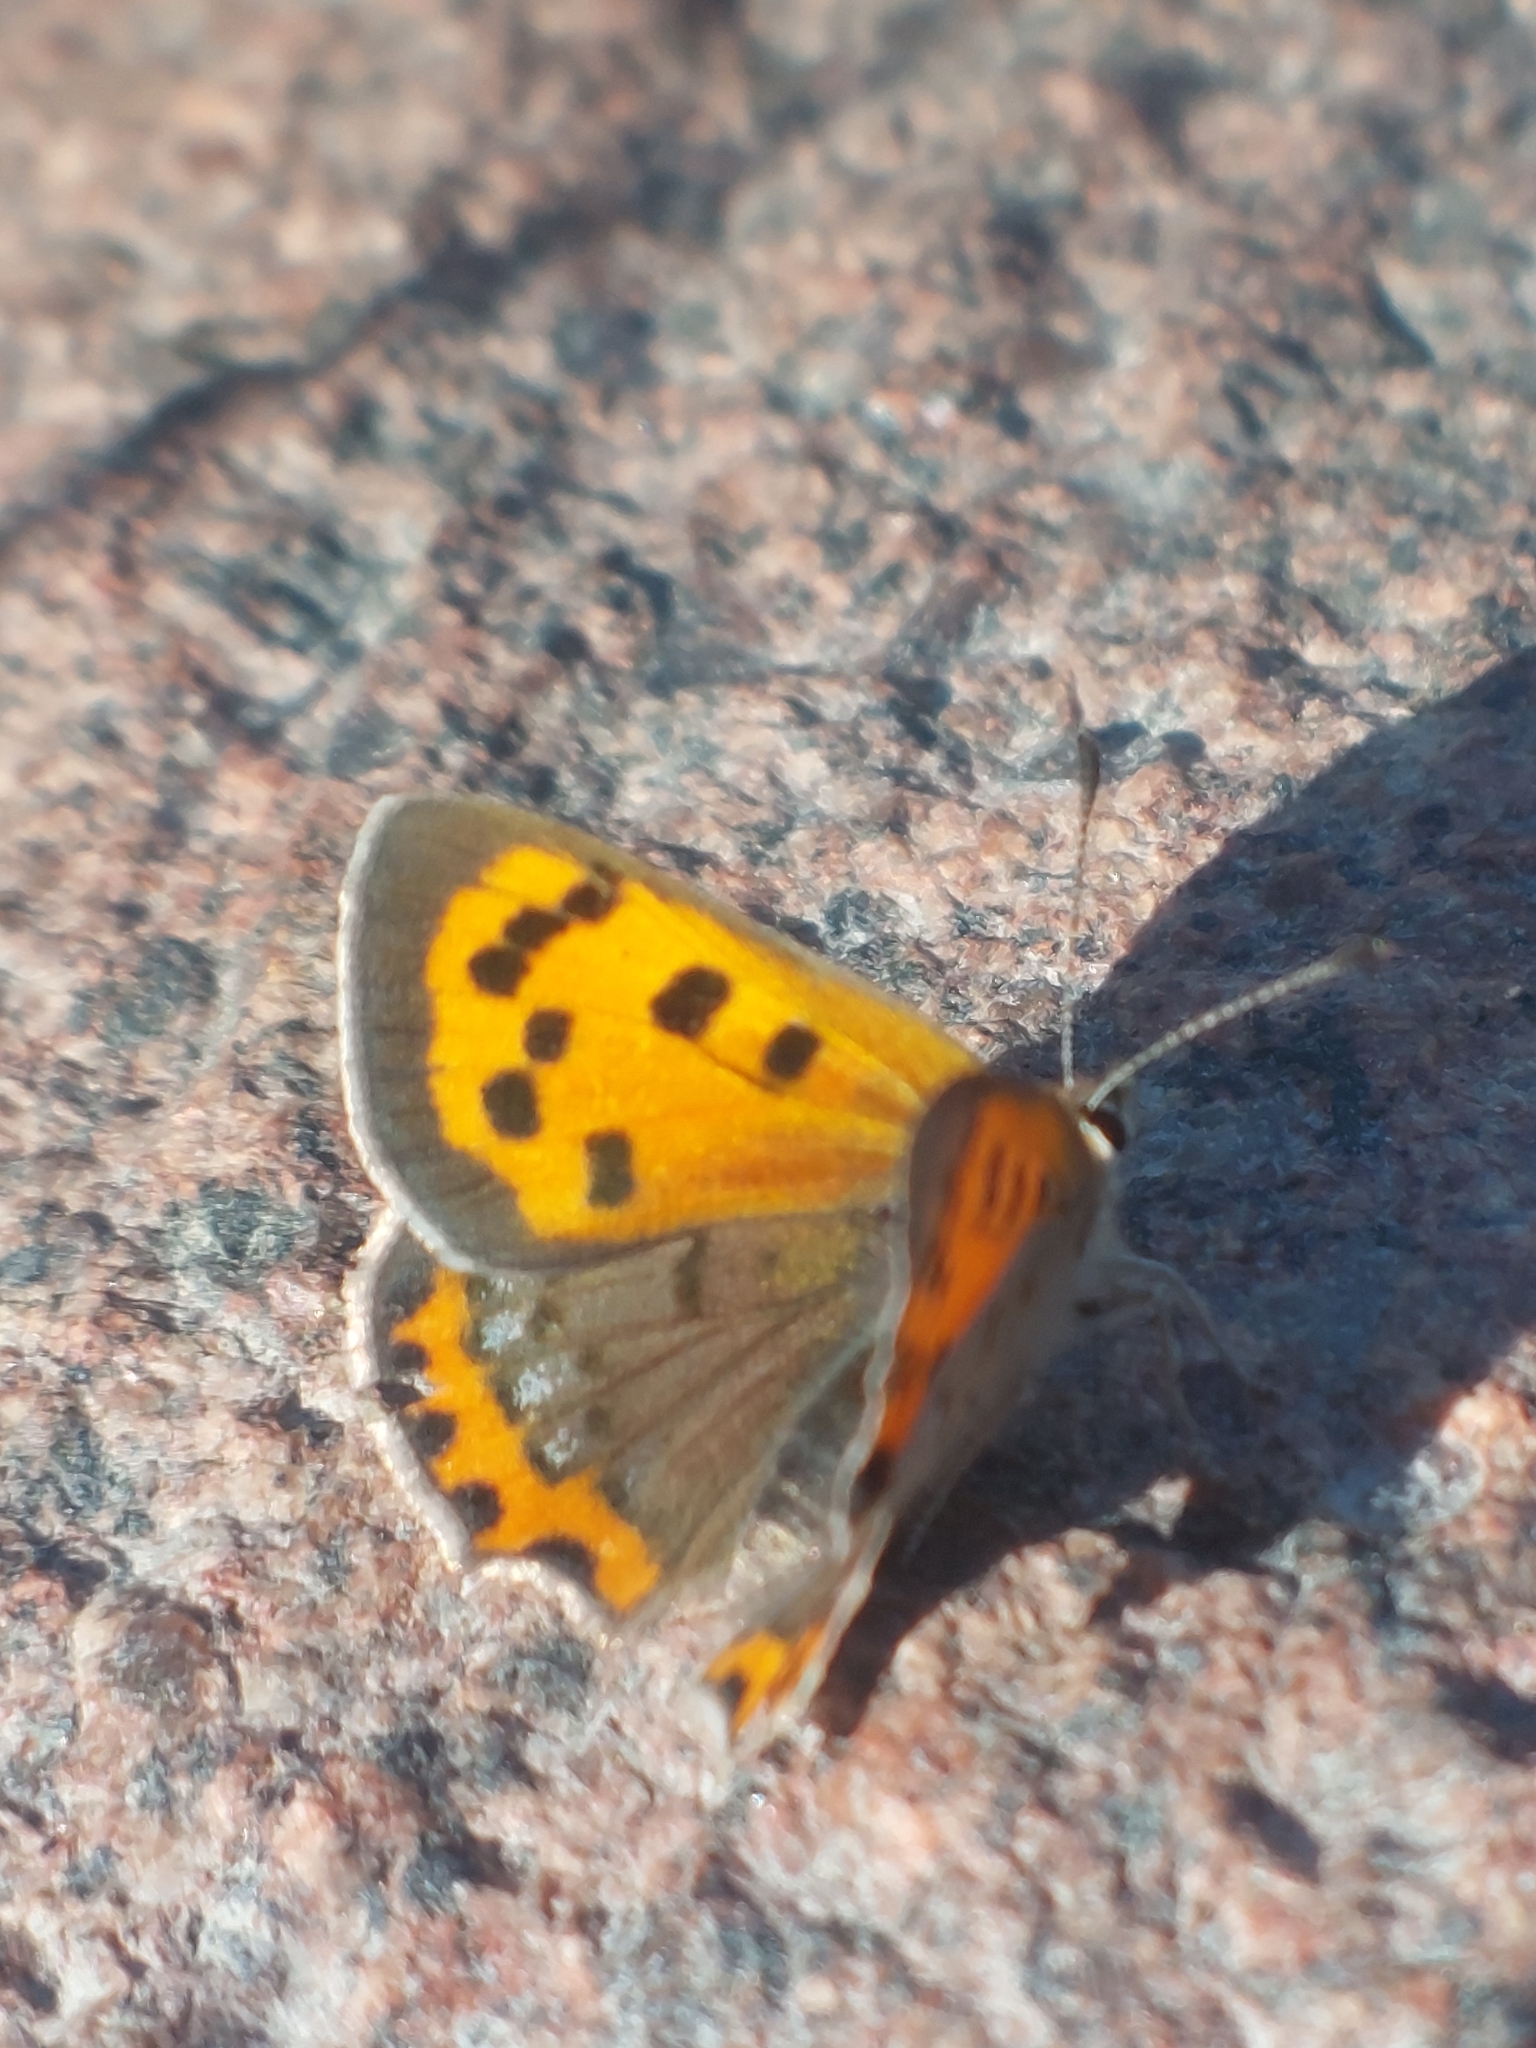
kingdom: Animalia
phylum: Arthropoda
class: Insecta
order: Lepidoptera
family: Lycaenidae
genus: Lycaena
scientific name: Lycaena phlaeas
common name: Small copper
